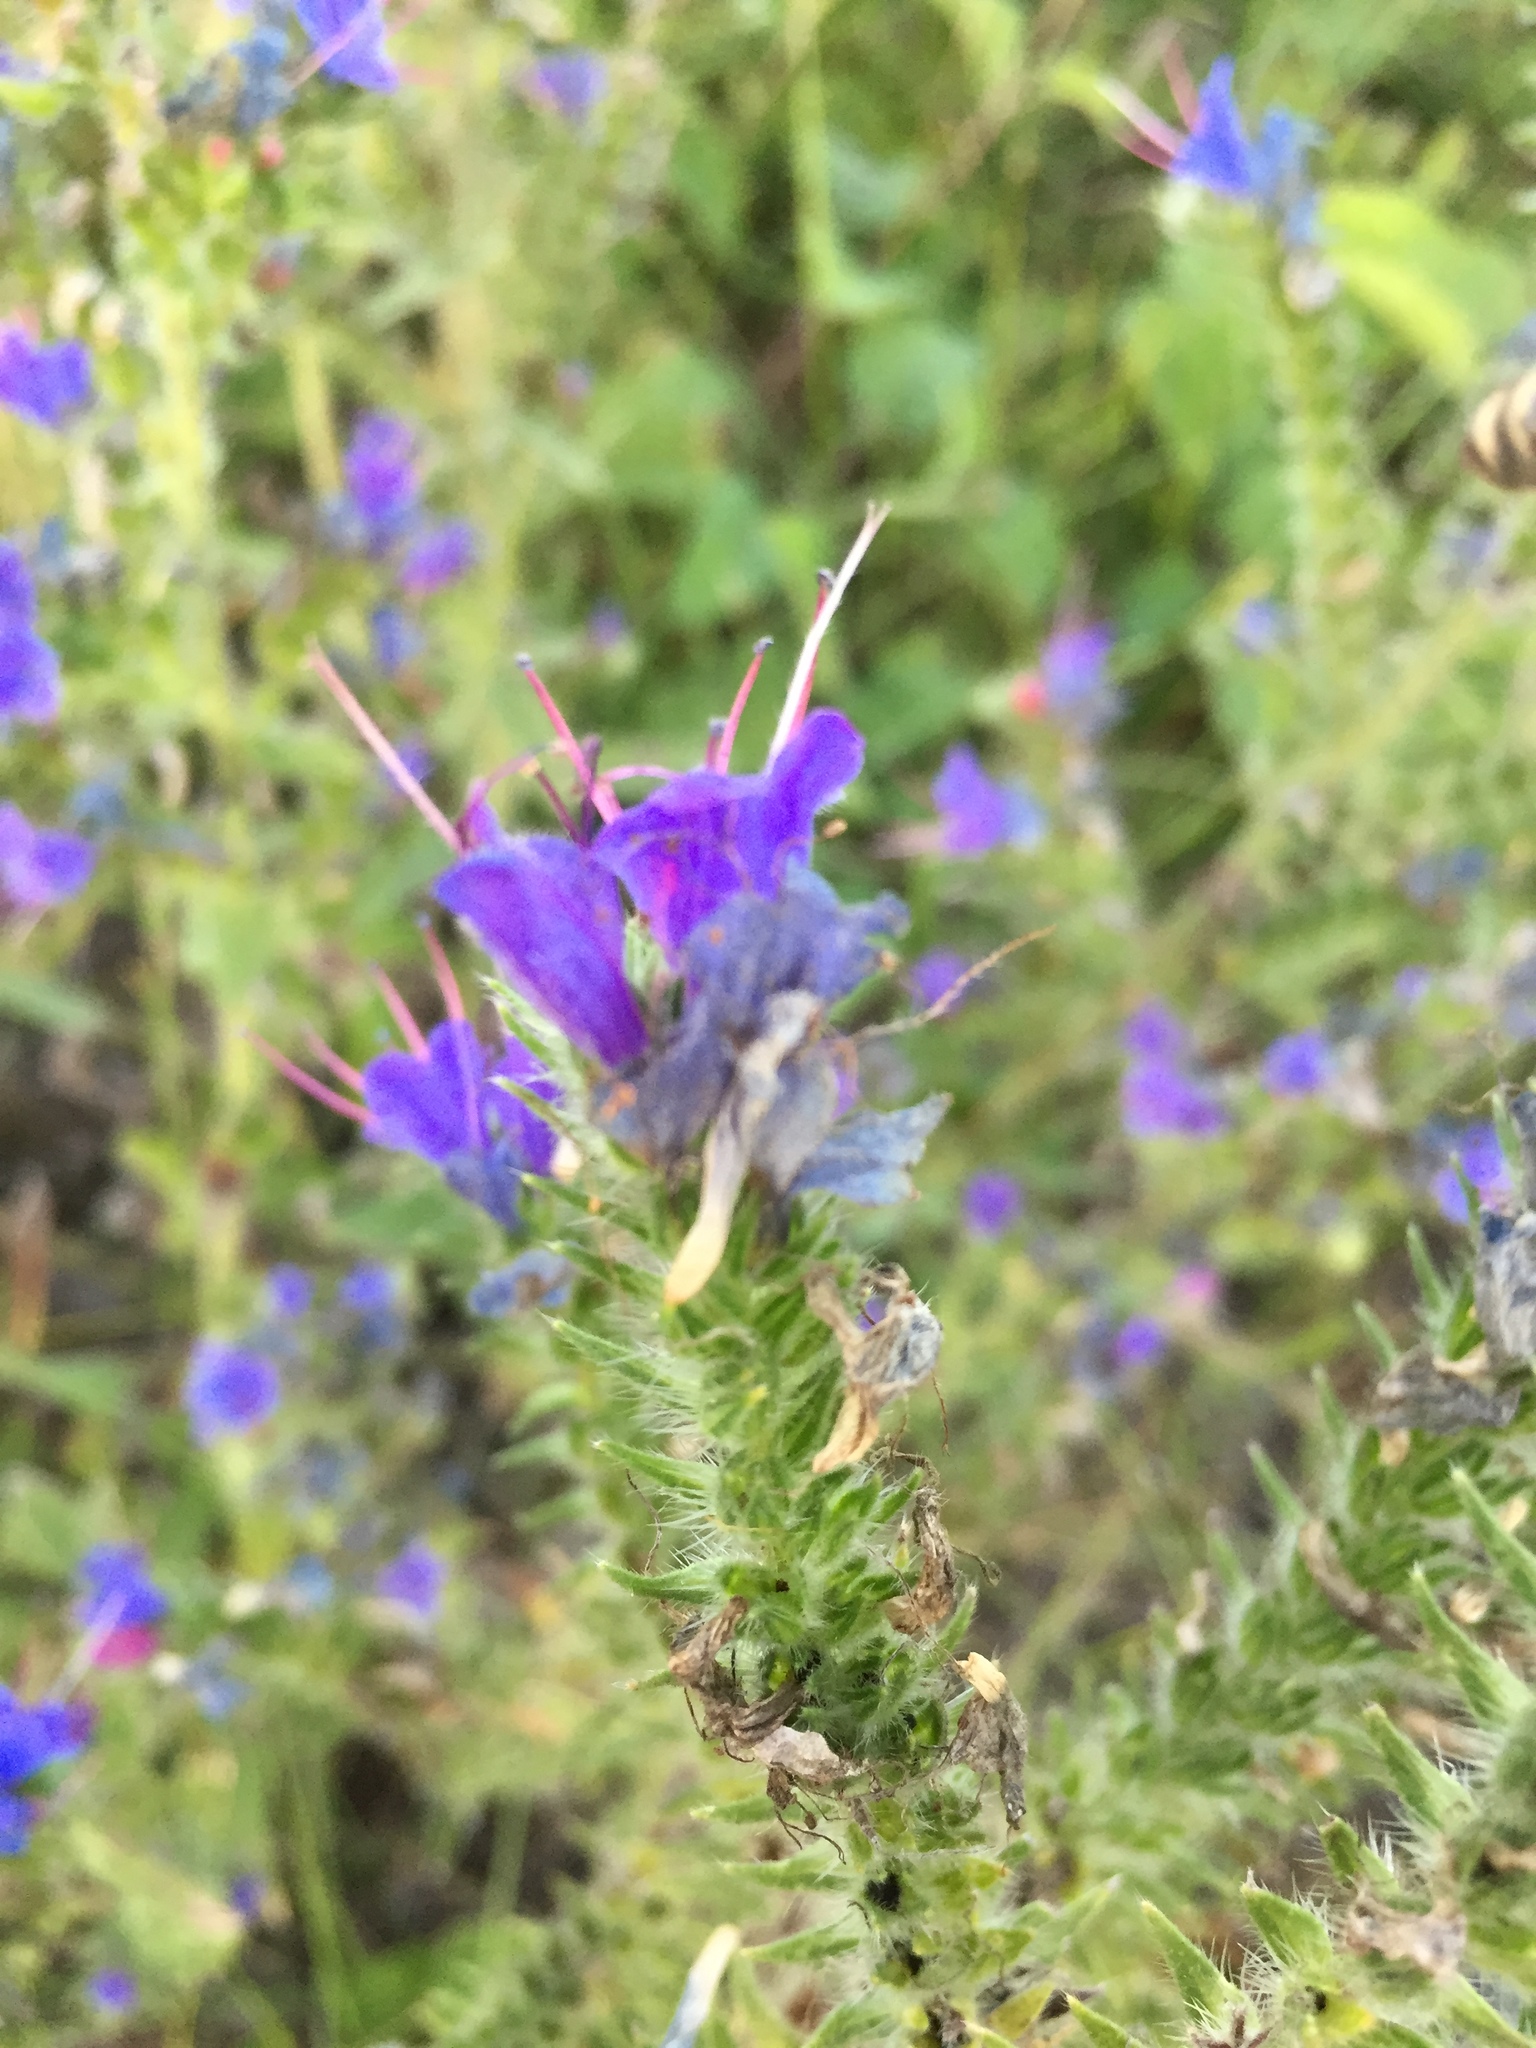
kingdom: Plantae
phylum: Tracheophyta
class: Magnoliopsida
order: Boraginales
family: Boraginaceae
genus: Echium
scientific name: Echium vulgare
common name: Common viper's bugloss
